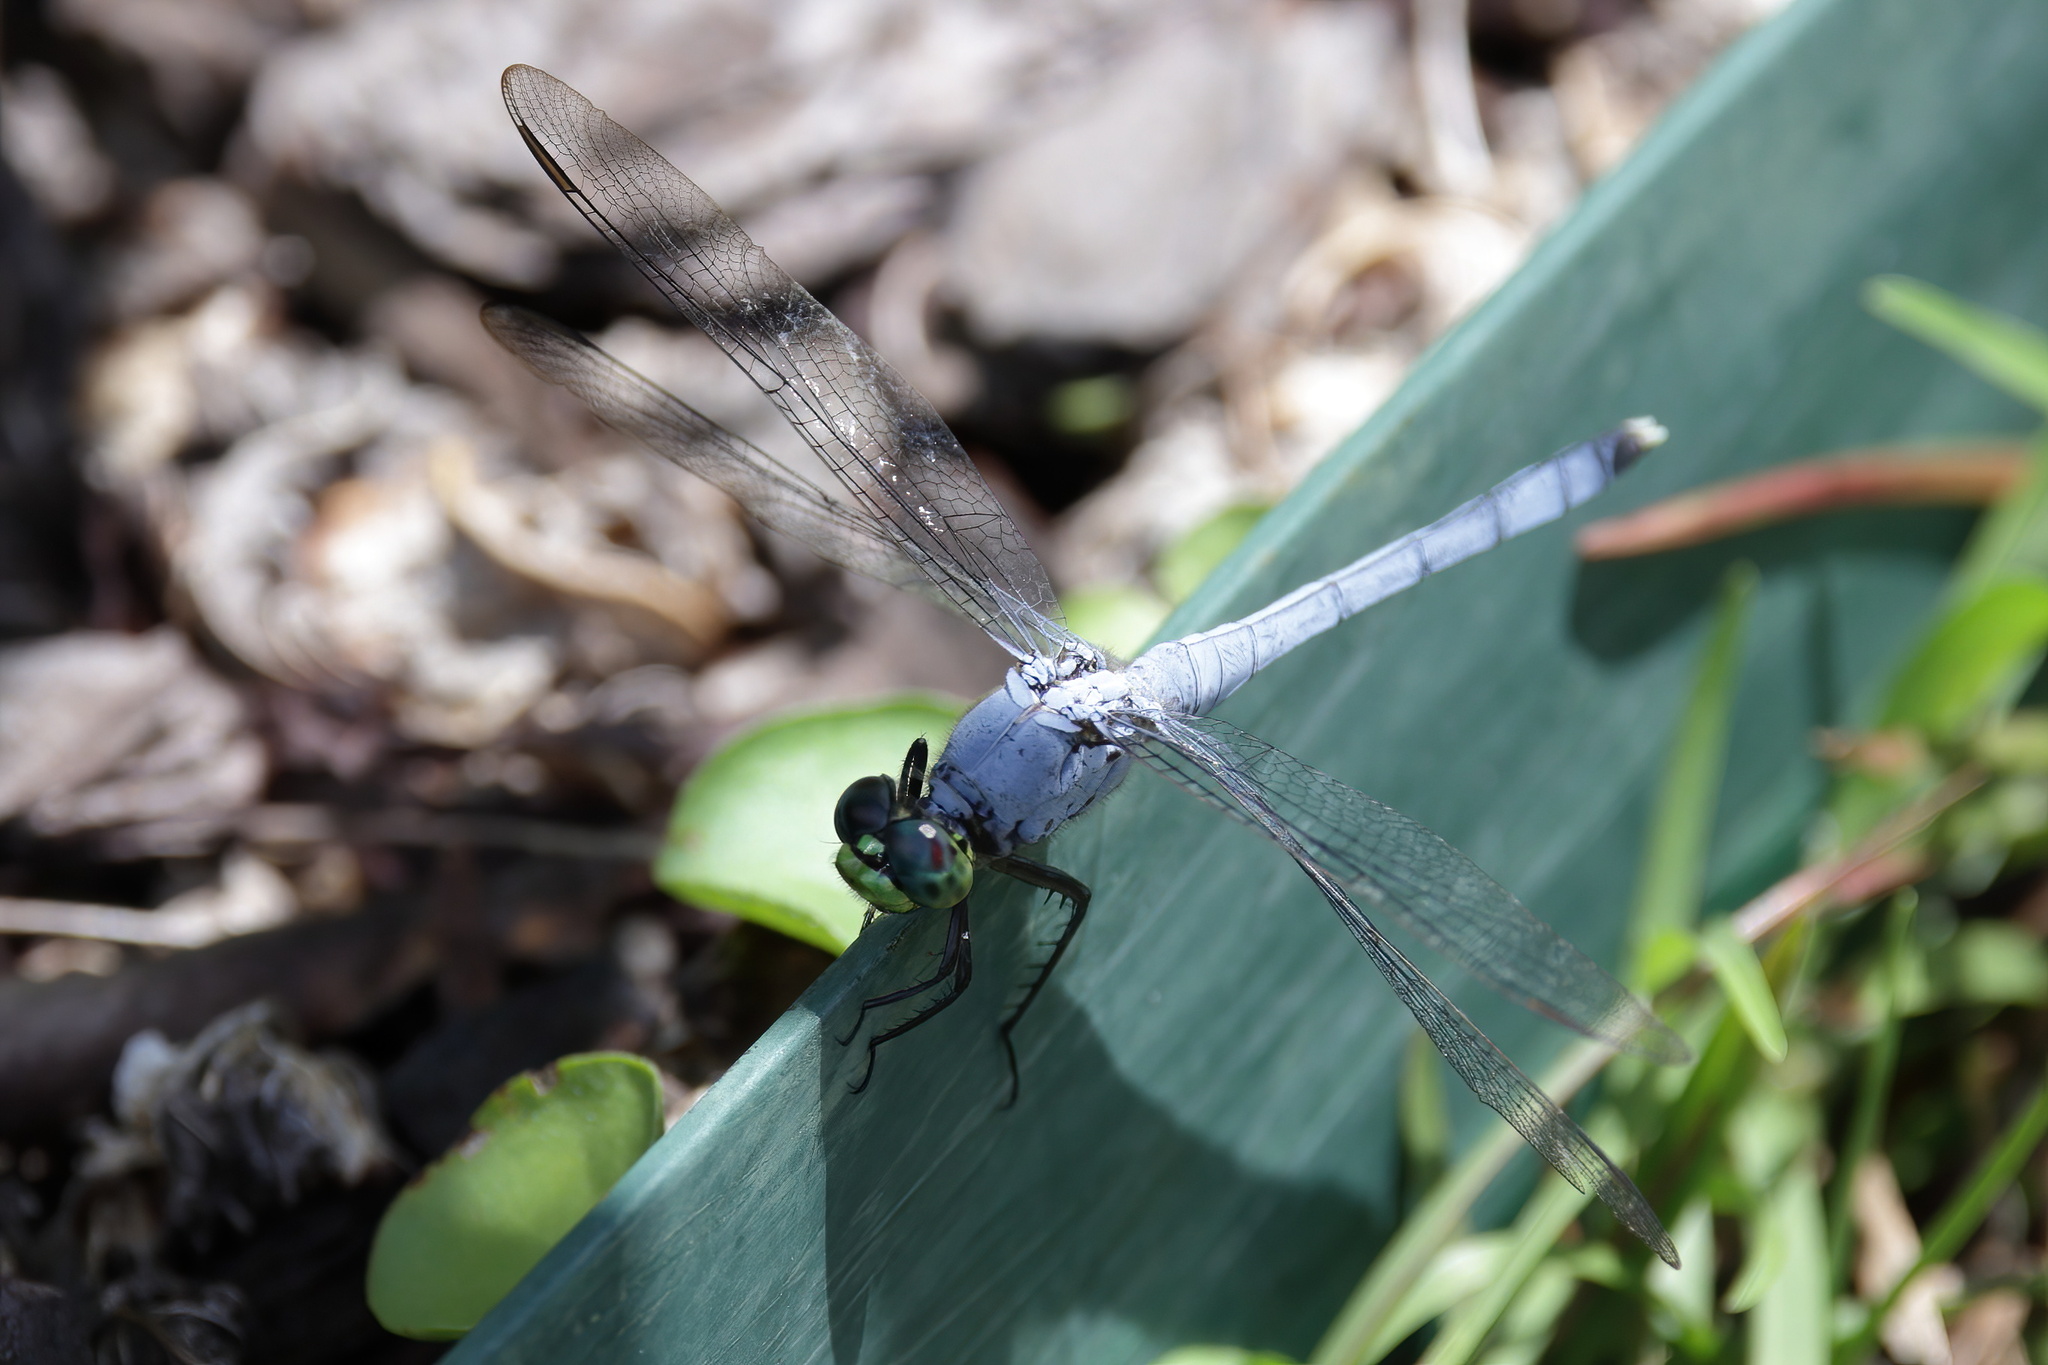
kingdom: Animalia
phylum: Arthropoda
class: Insecta
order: Odonata
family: Libellulidae
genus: Erythemis
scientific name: Erythemis simplicicollis
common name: Eastern pondhawk
